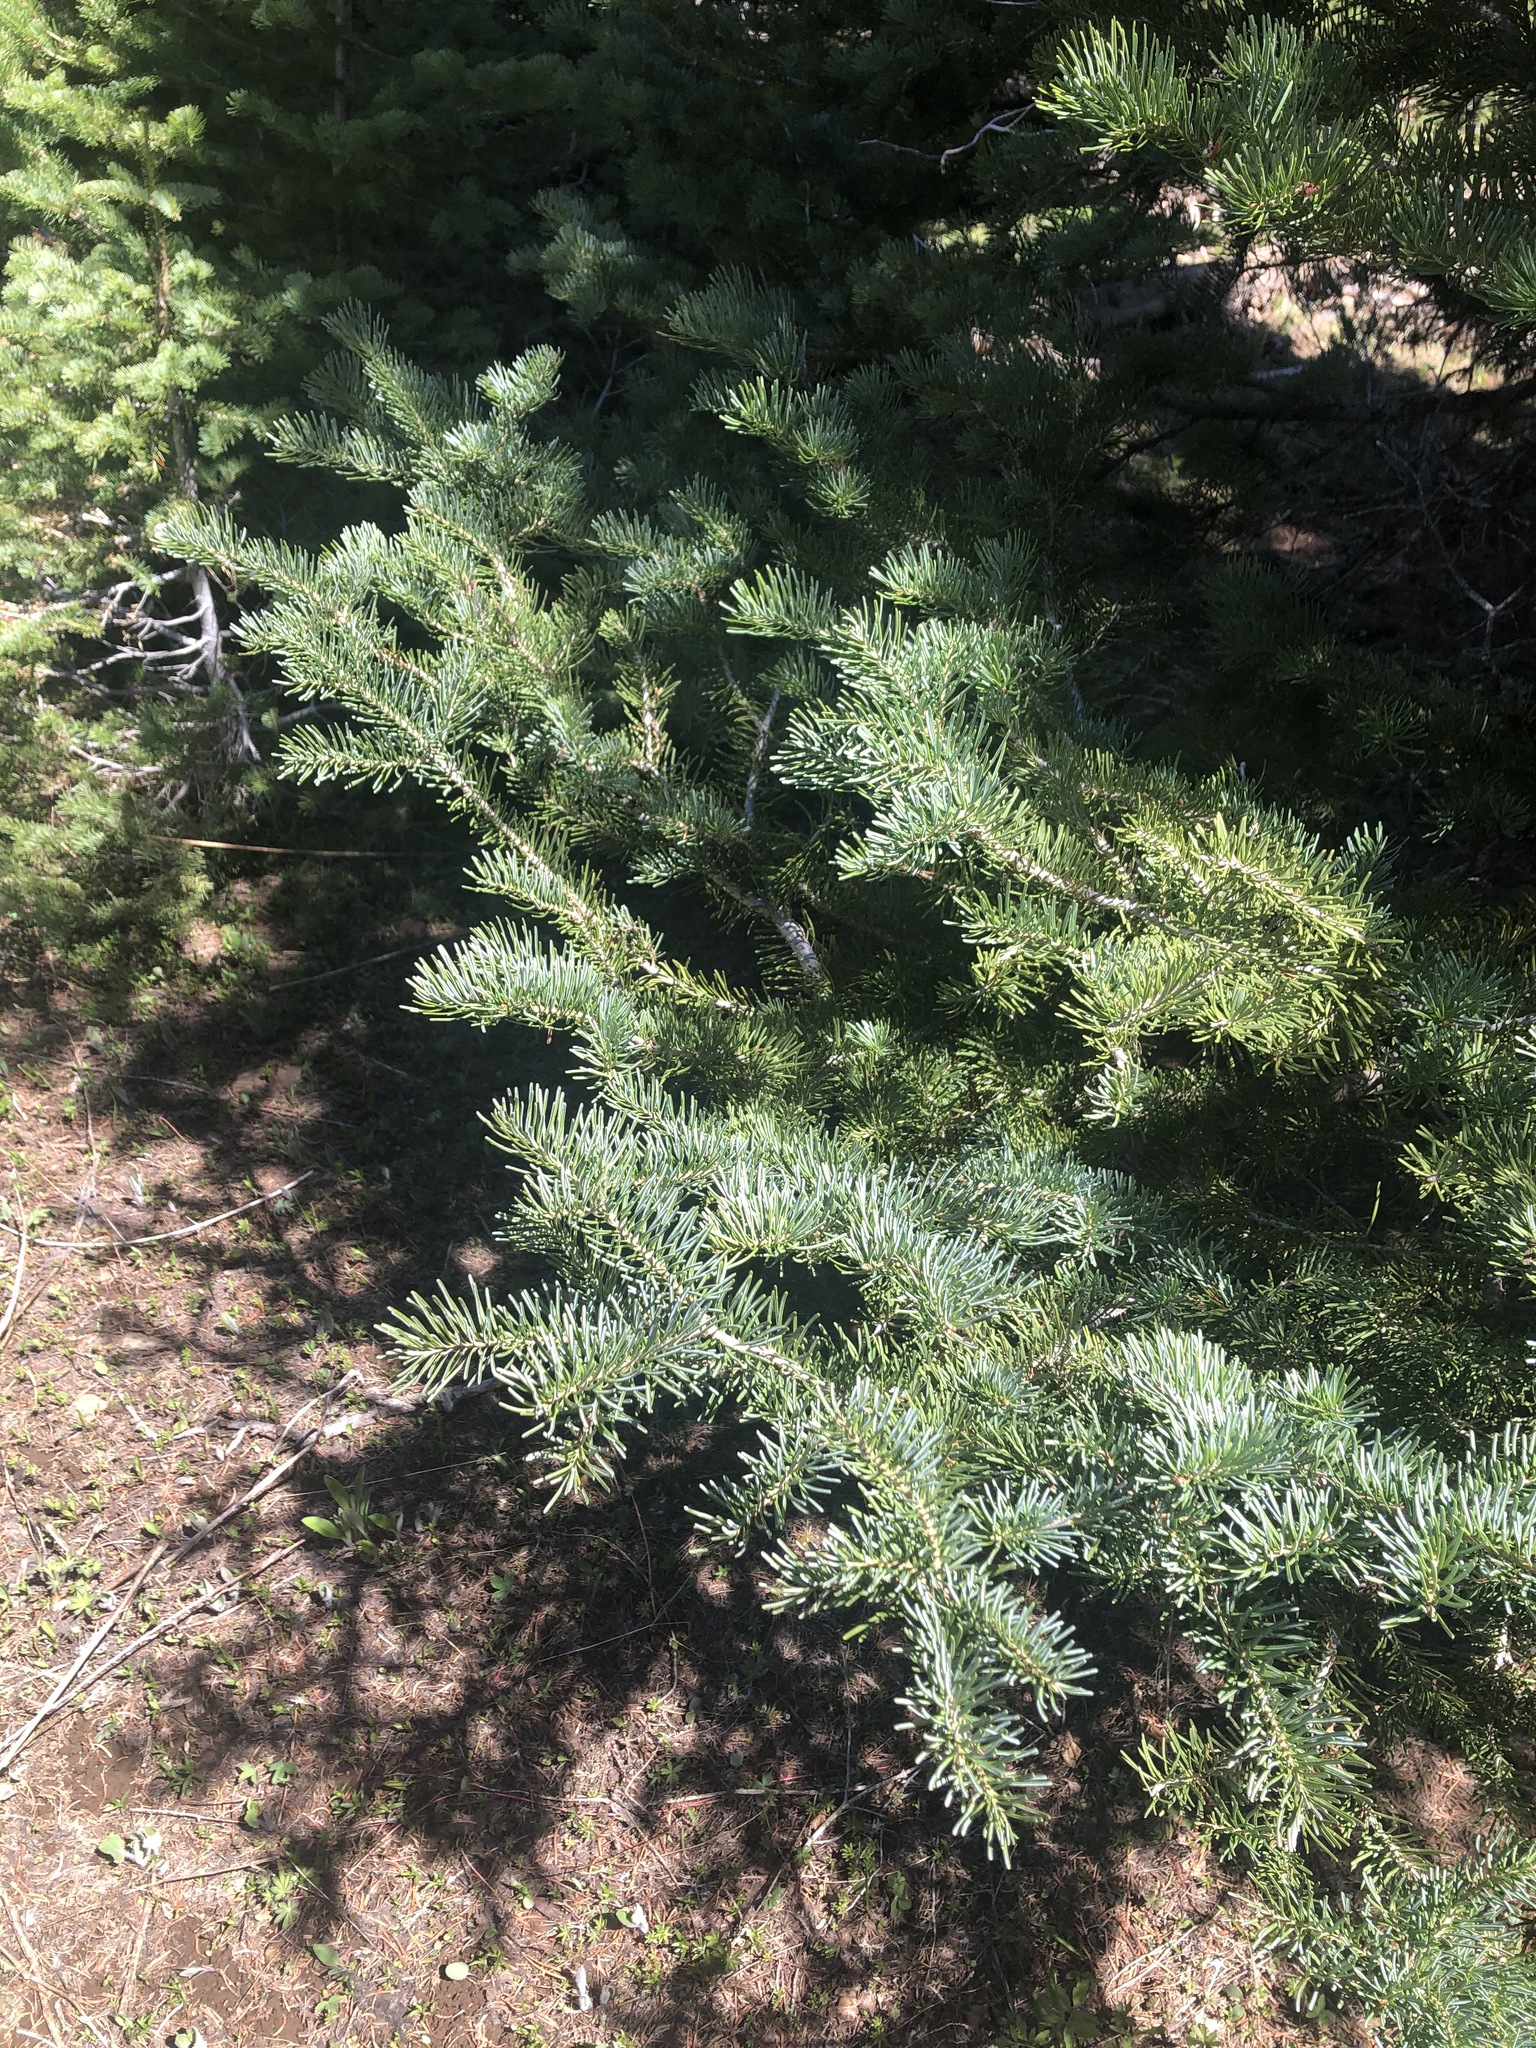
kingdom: Plantae
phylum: Tracheophyta
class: Pinopsida
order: Pinales
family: Pinaceae
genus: Abies
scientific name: Abies lasiocarpa
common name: Subalpine fir
